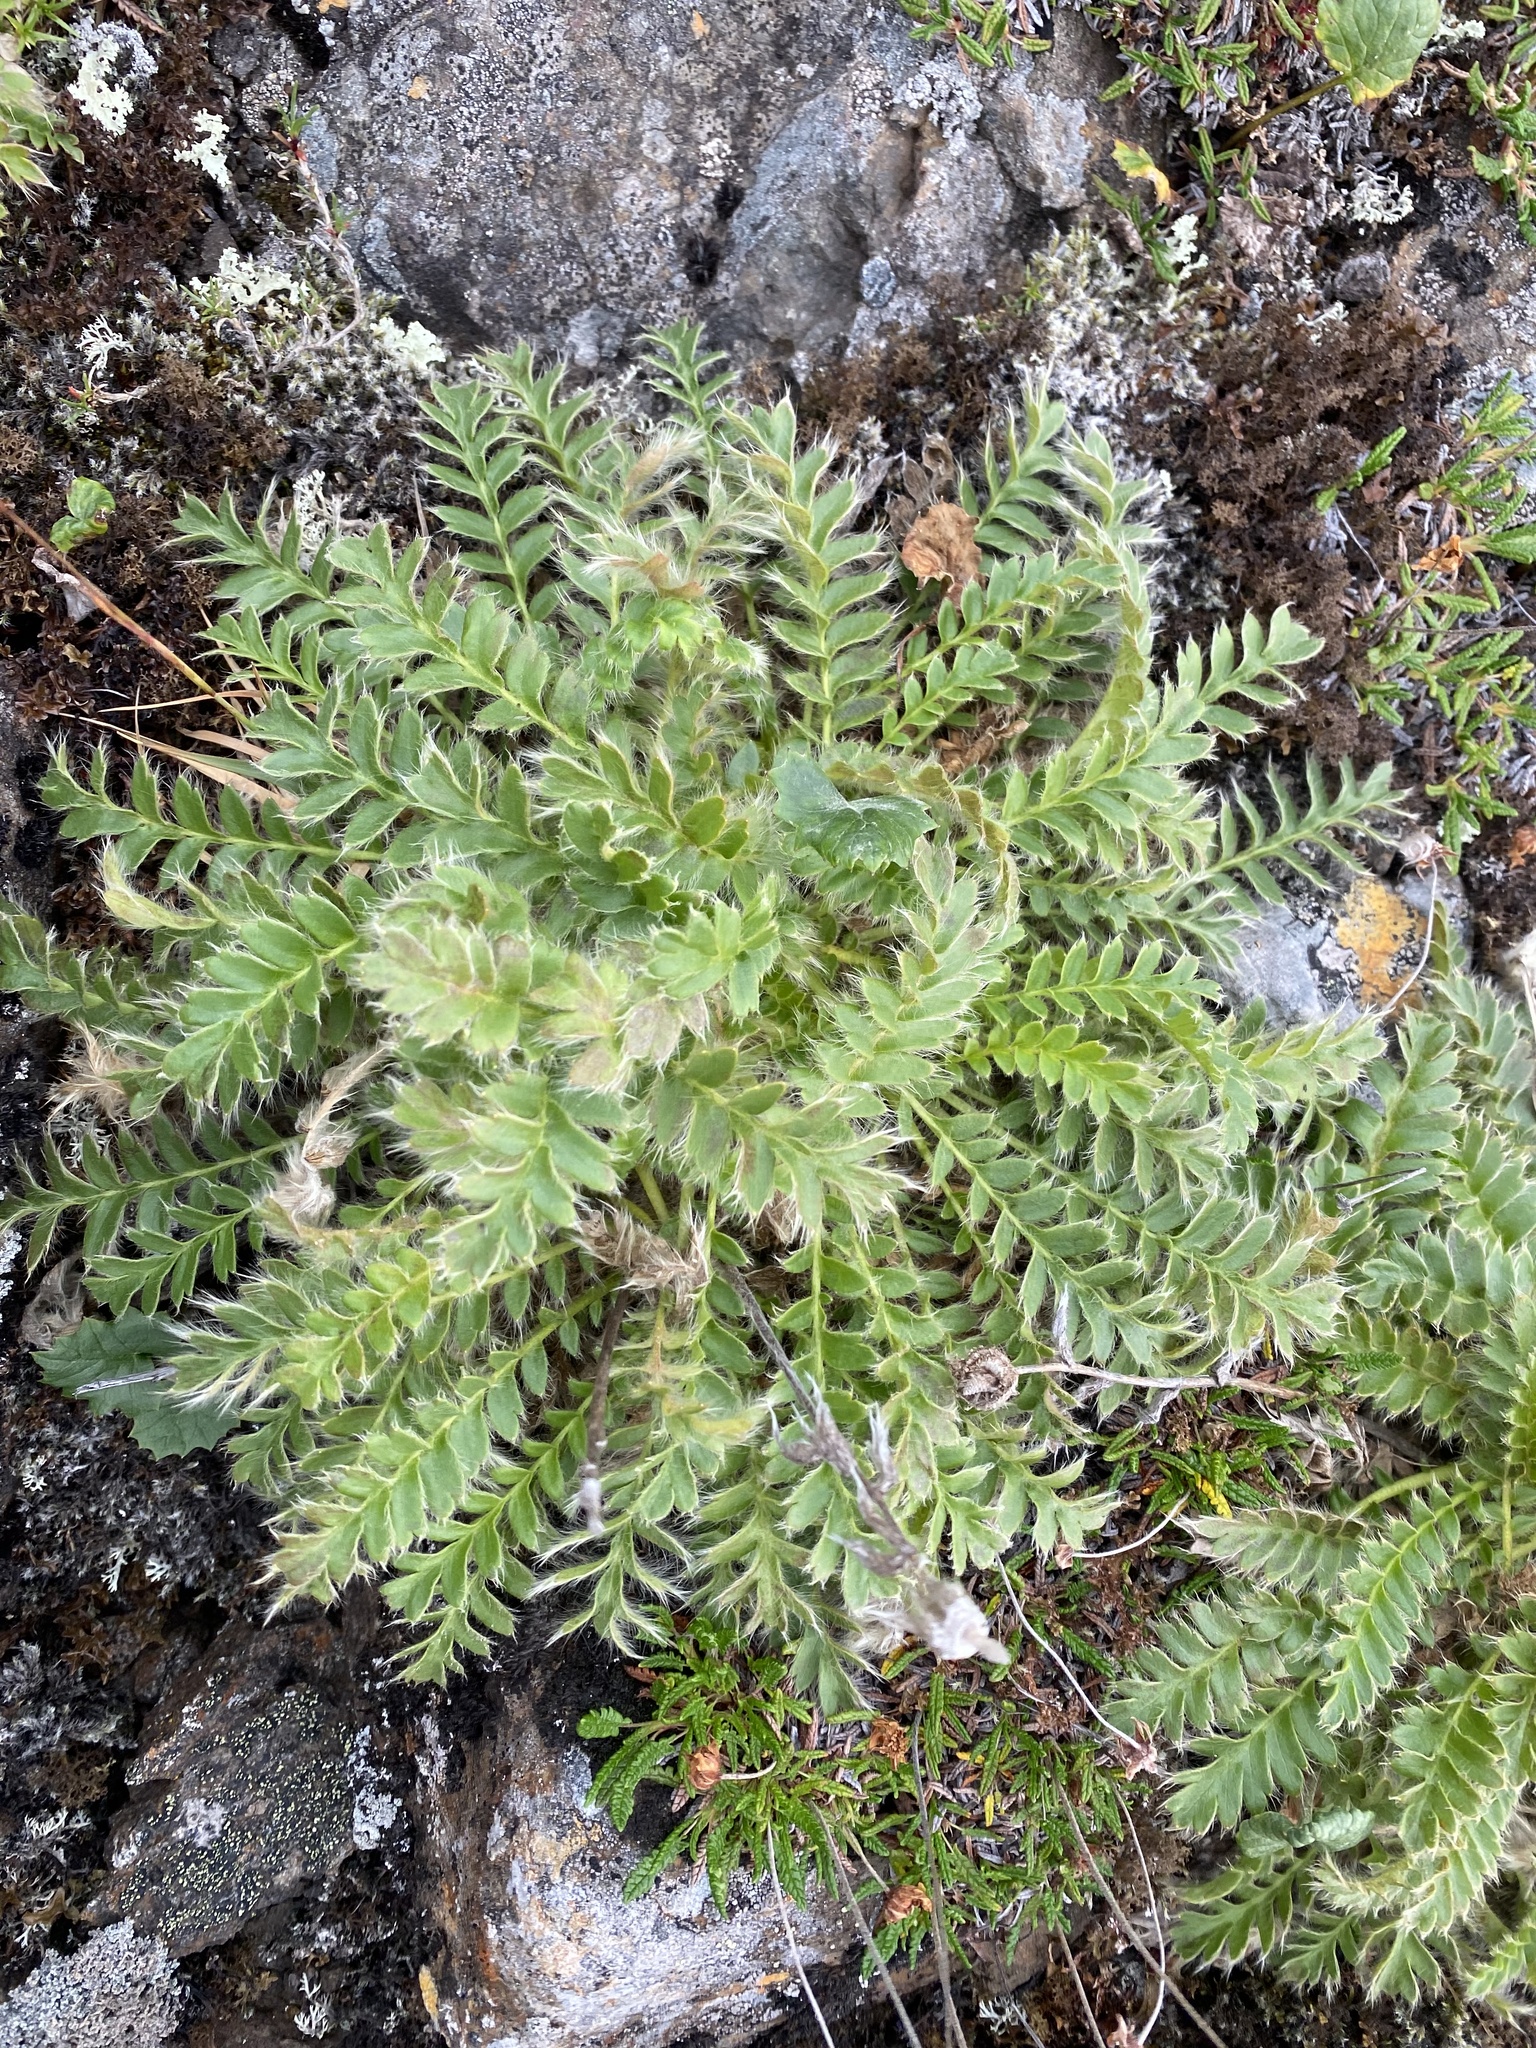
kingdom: Plantae
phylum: Tracheophyta
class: Magnoliopsida
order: Rosales
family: Rosaceae
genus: Geum
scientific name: Geum glaciale
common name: Glacier avens
